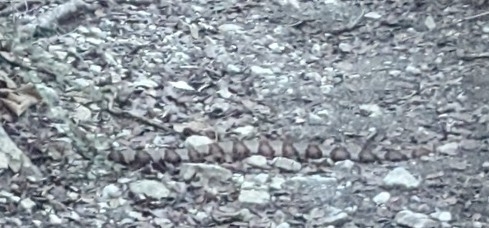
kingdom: Animalia
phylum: Chordata
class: Squamata
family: Viperidae
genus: Agkistrodon
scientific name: Agkistrodon contortrix
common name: Northern copperhead
